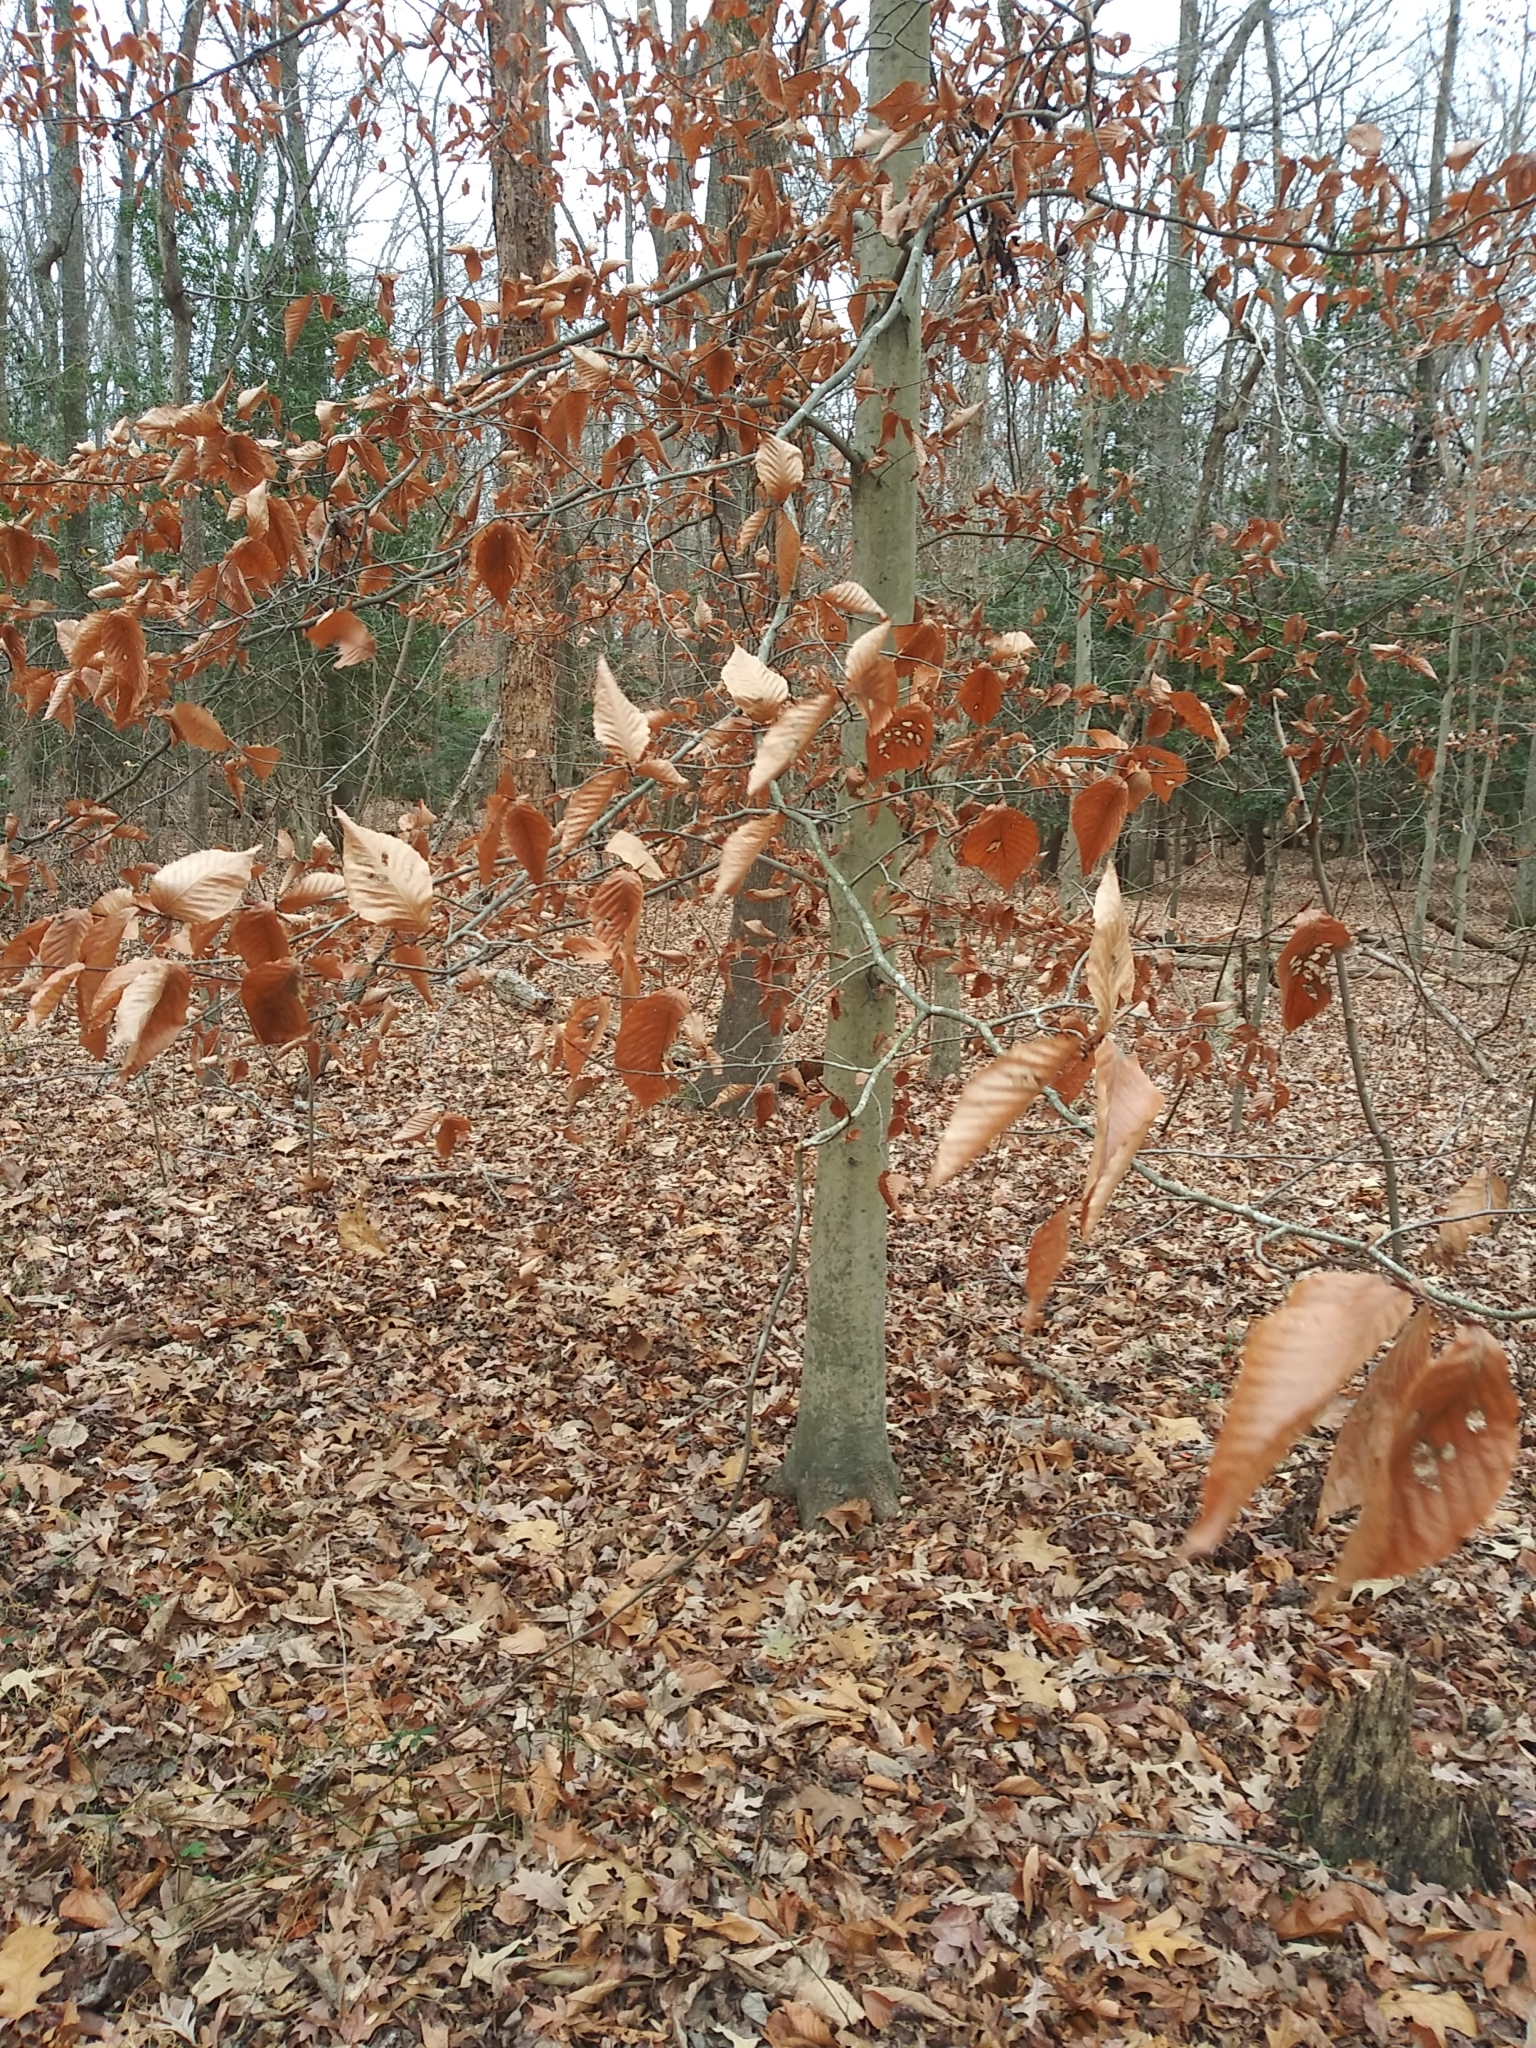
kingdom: Plantae
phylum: Tracheophyta
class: Magnoliopsida
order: Fagales
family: Fagaceae
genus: Fagus
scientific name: Fagus grandifolia
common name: American beech
